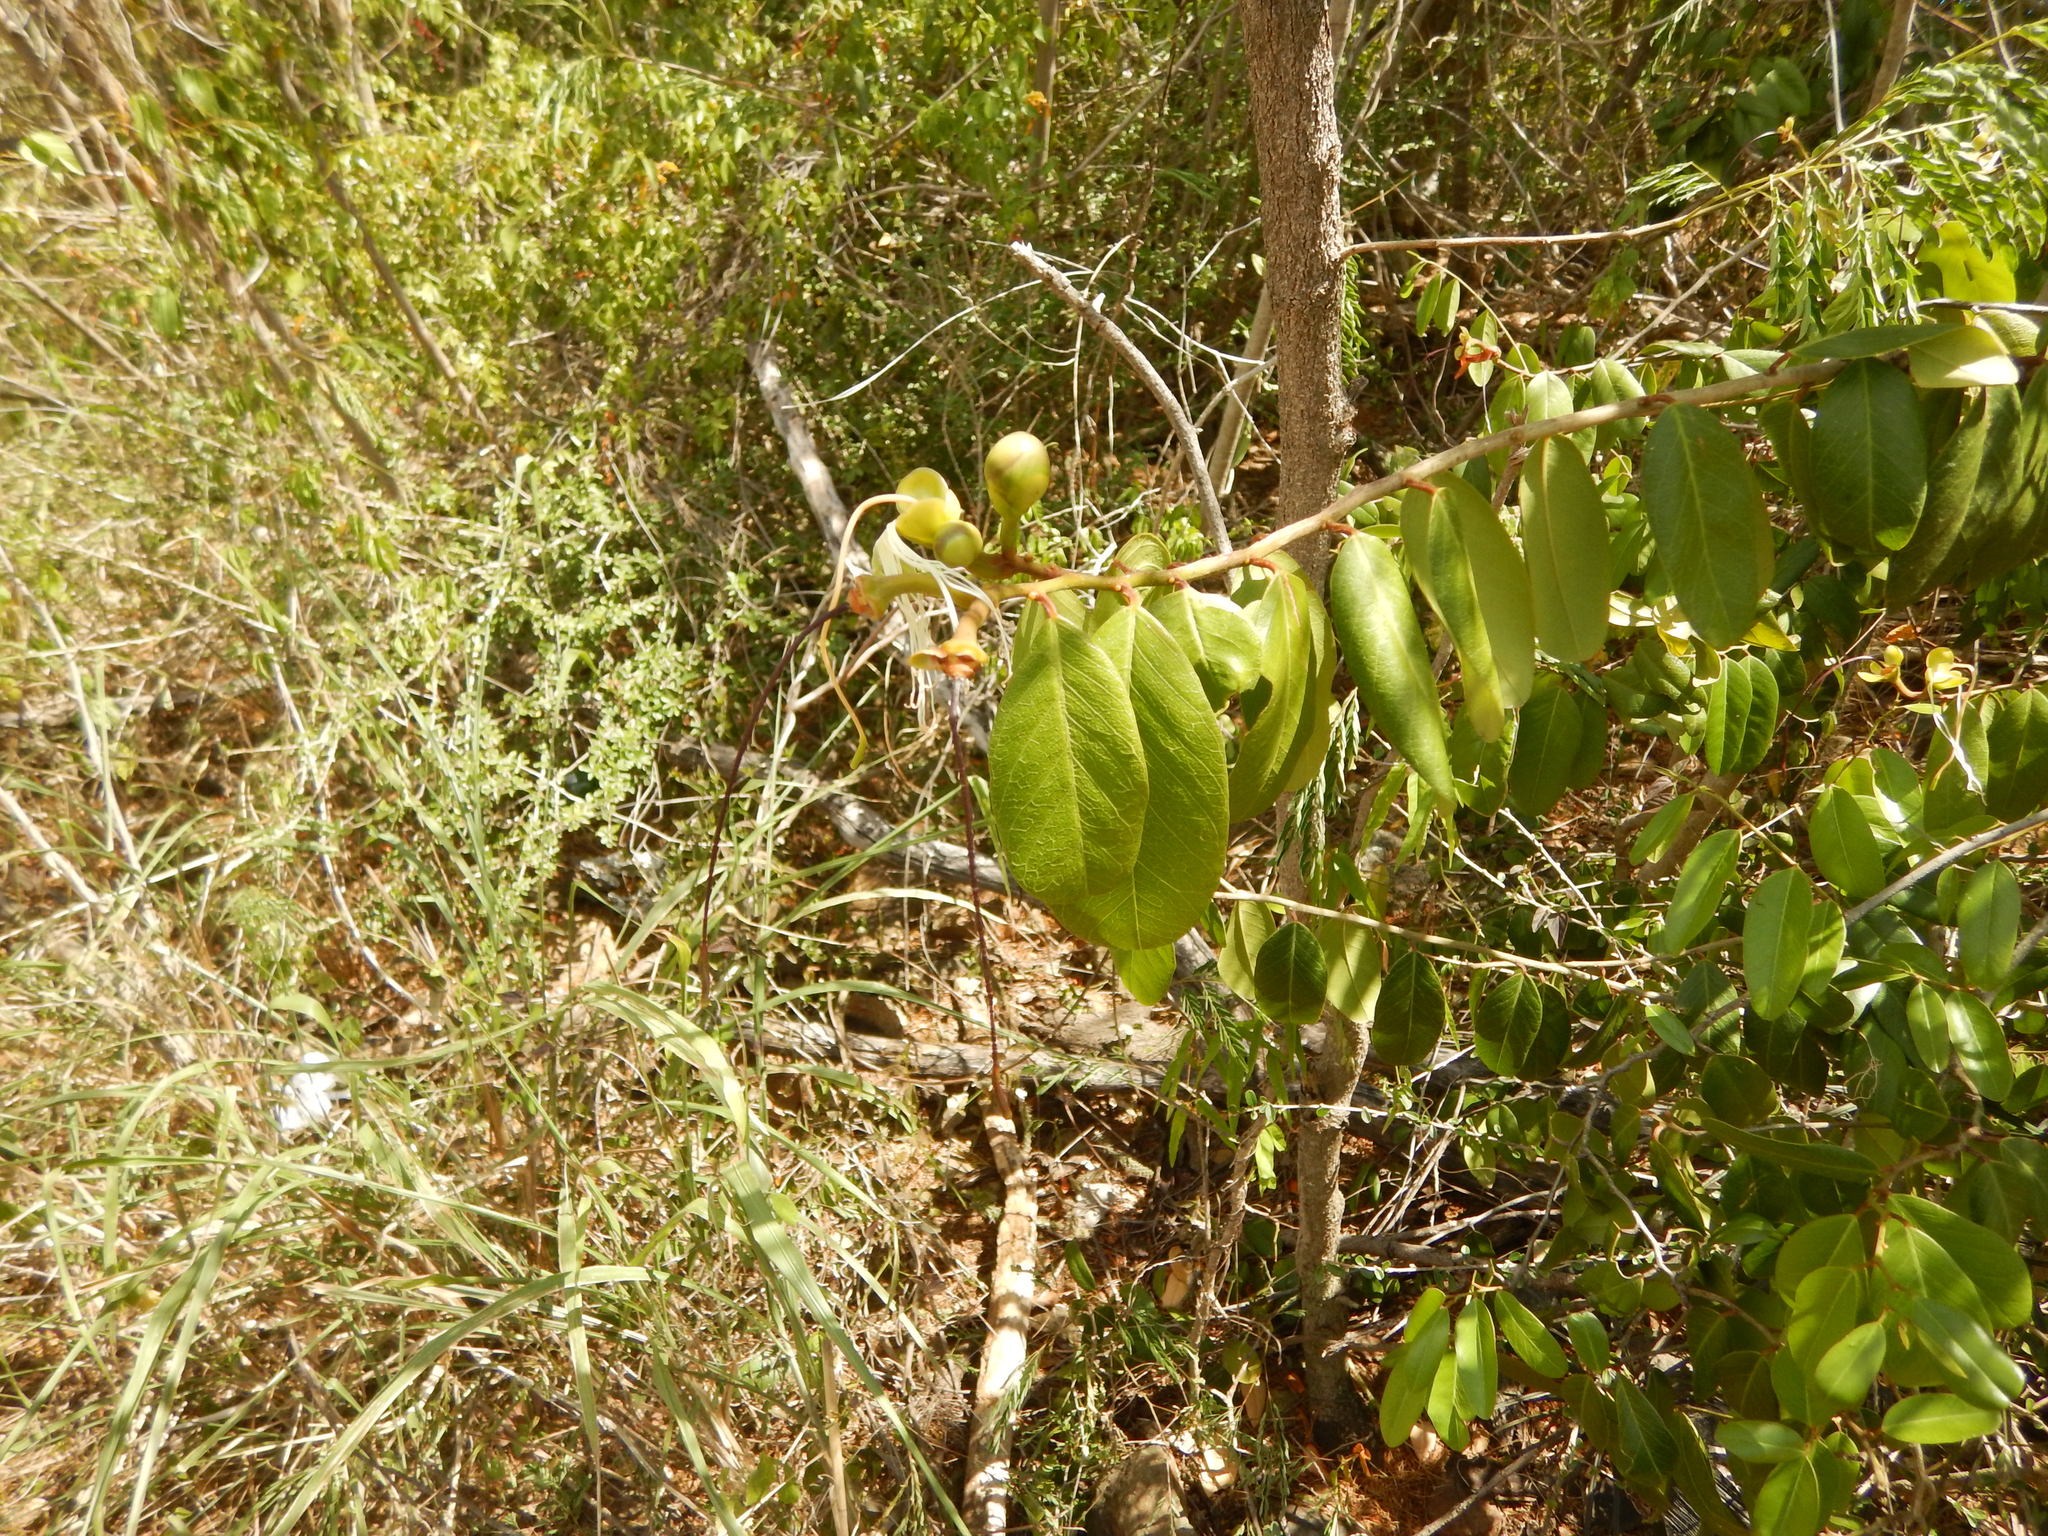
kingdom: Plantae
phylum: Tracheophyta
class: Magnoliopsida
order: Brassicales
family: Capparaceae
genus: Cynophalla
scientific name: Cynophalla flexuosa
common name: Capertree
